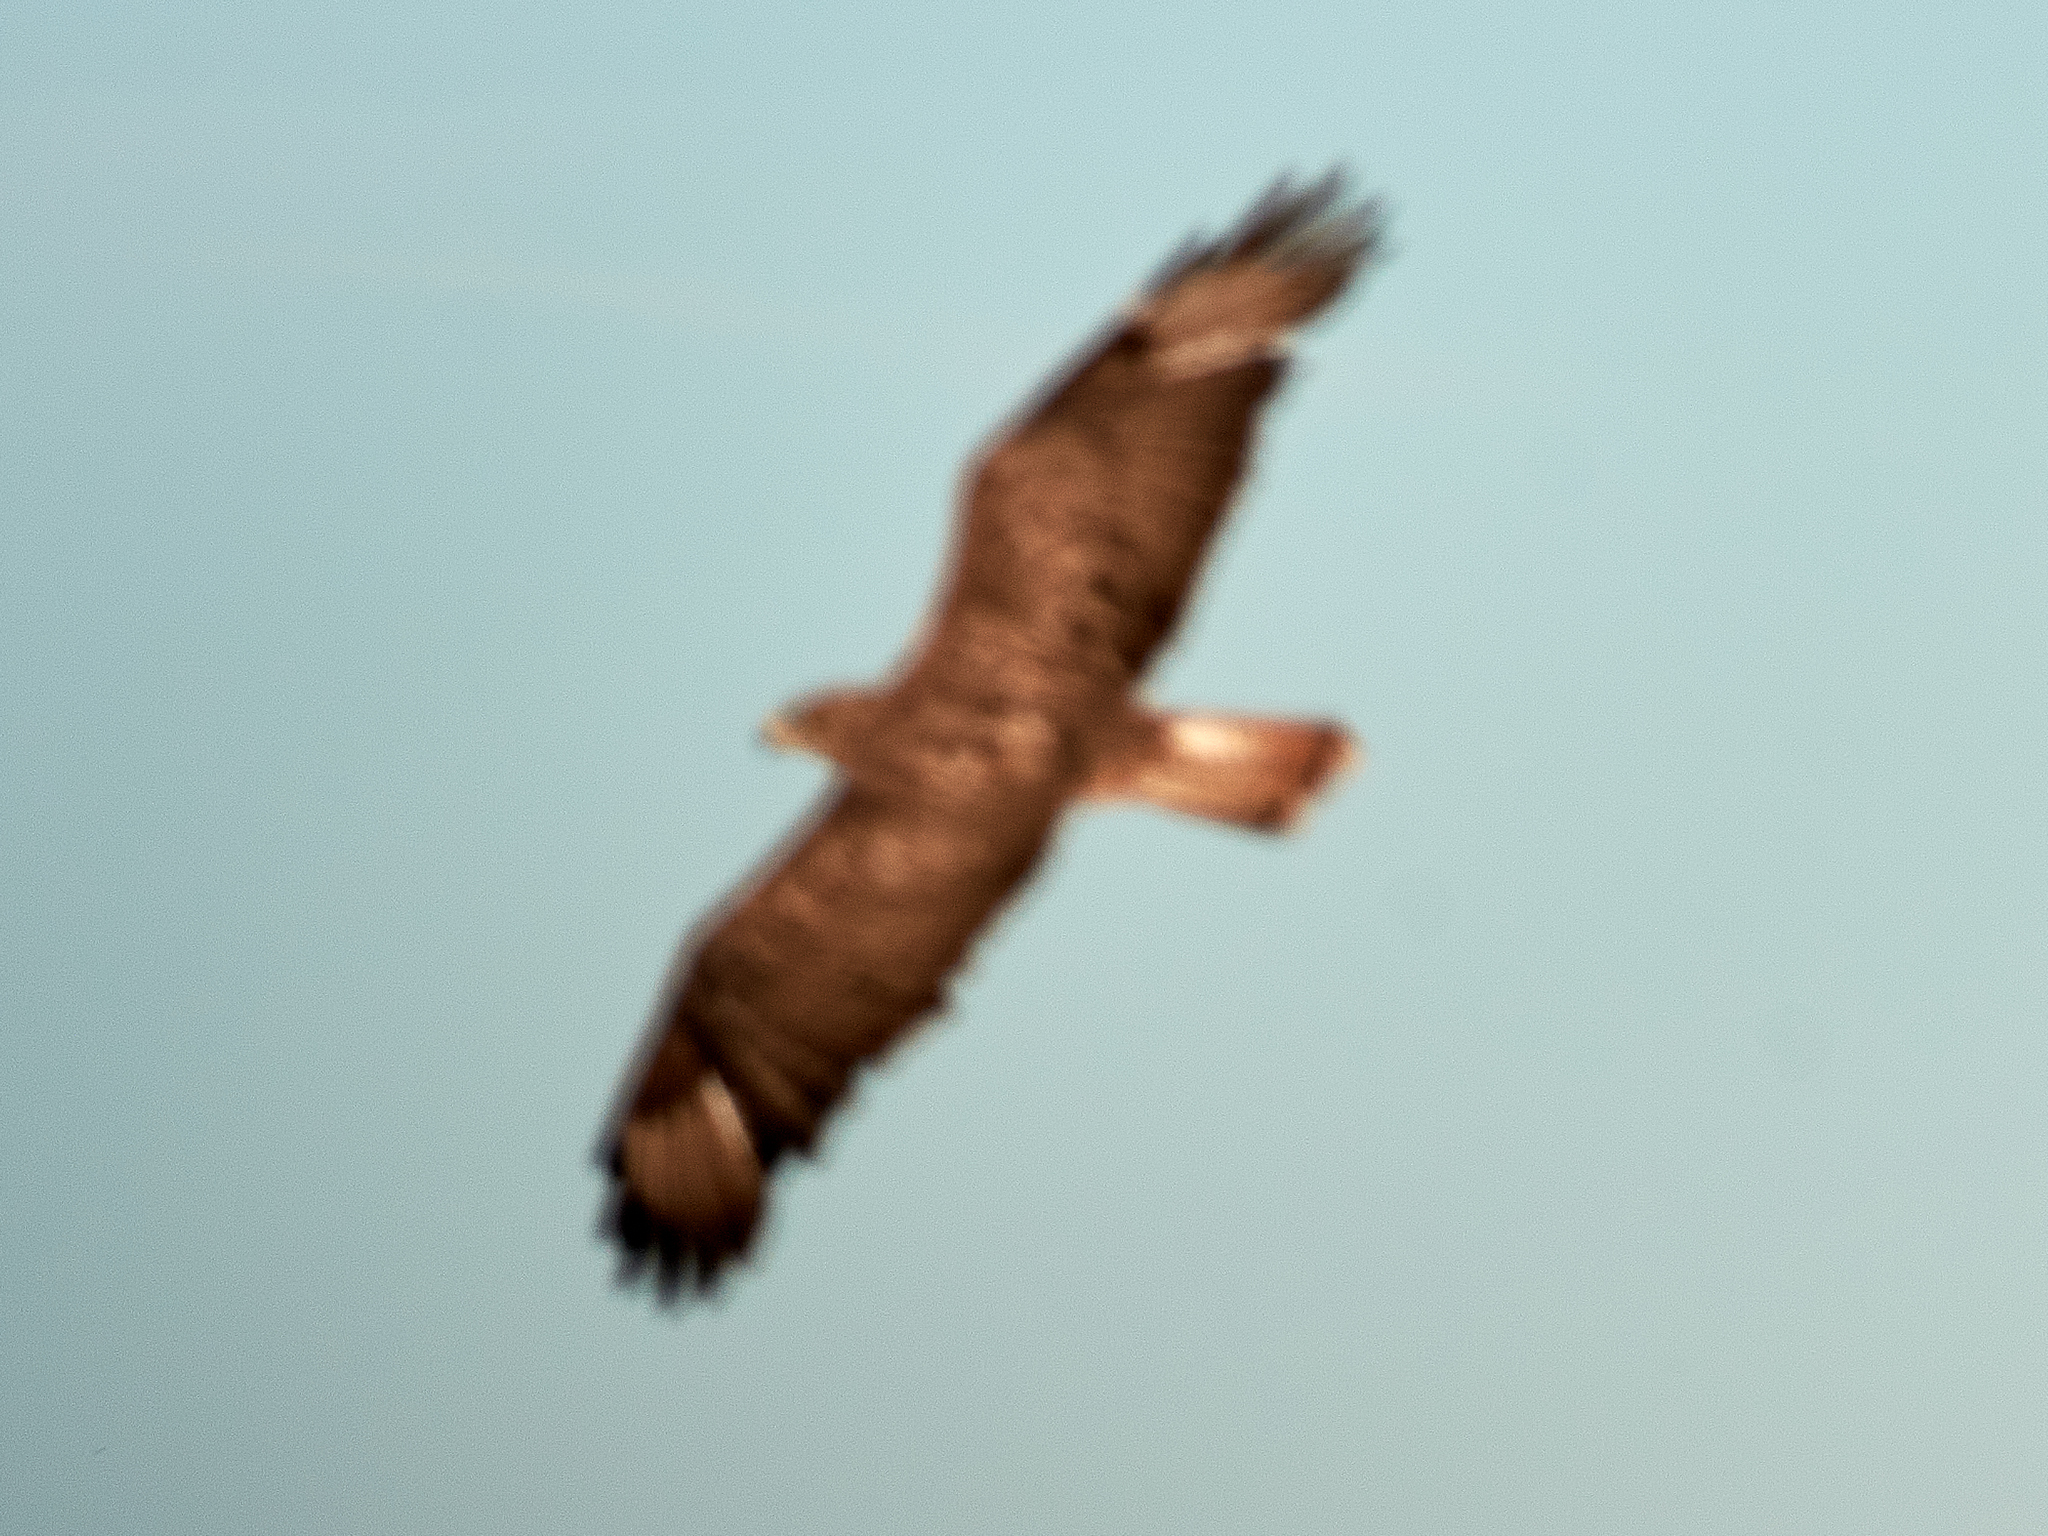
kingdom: Animalia
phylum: Chordata
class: Aves
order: Accipitriformes
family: Accipitridae
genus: Buteo
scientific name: Buteo buteo
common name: Common buzzard
